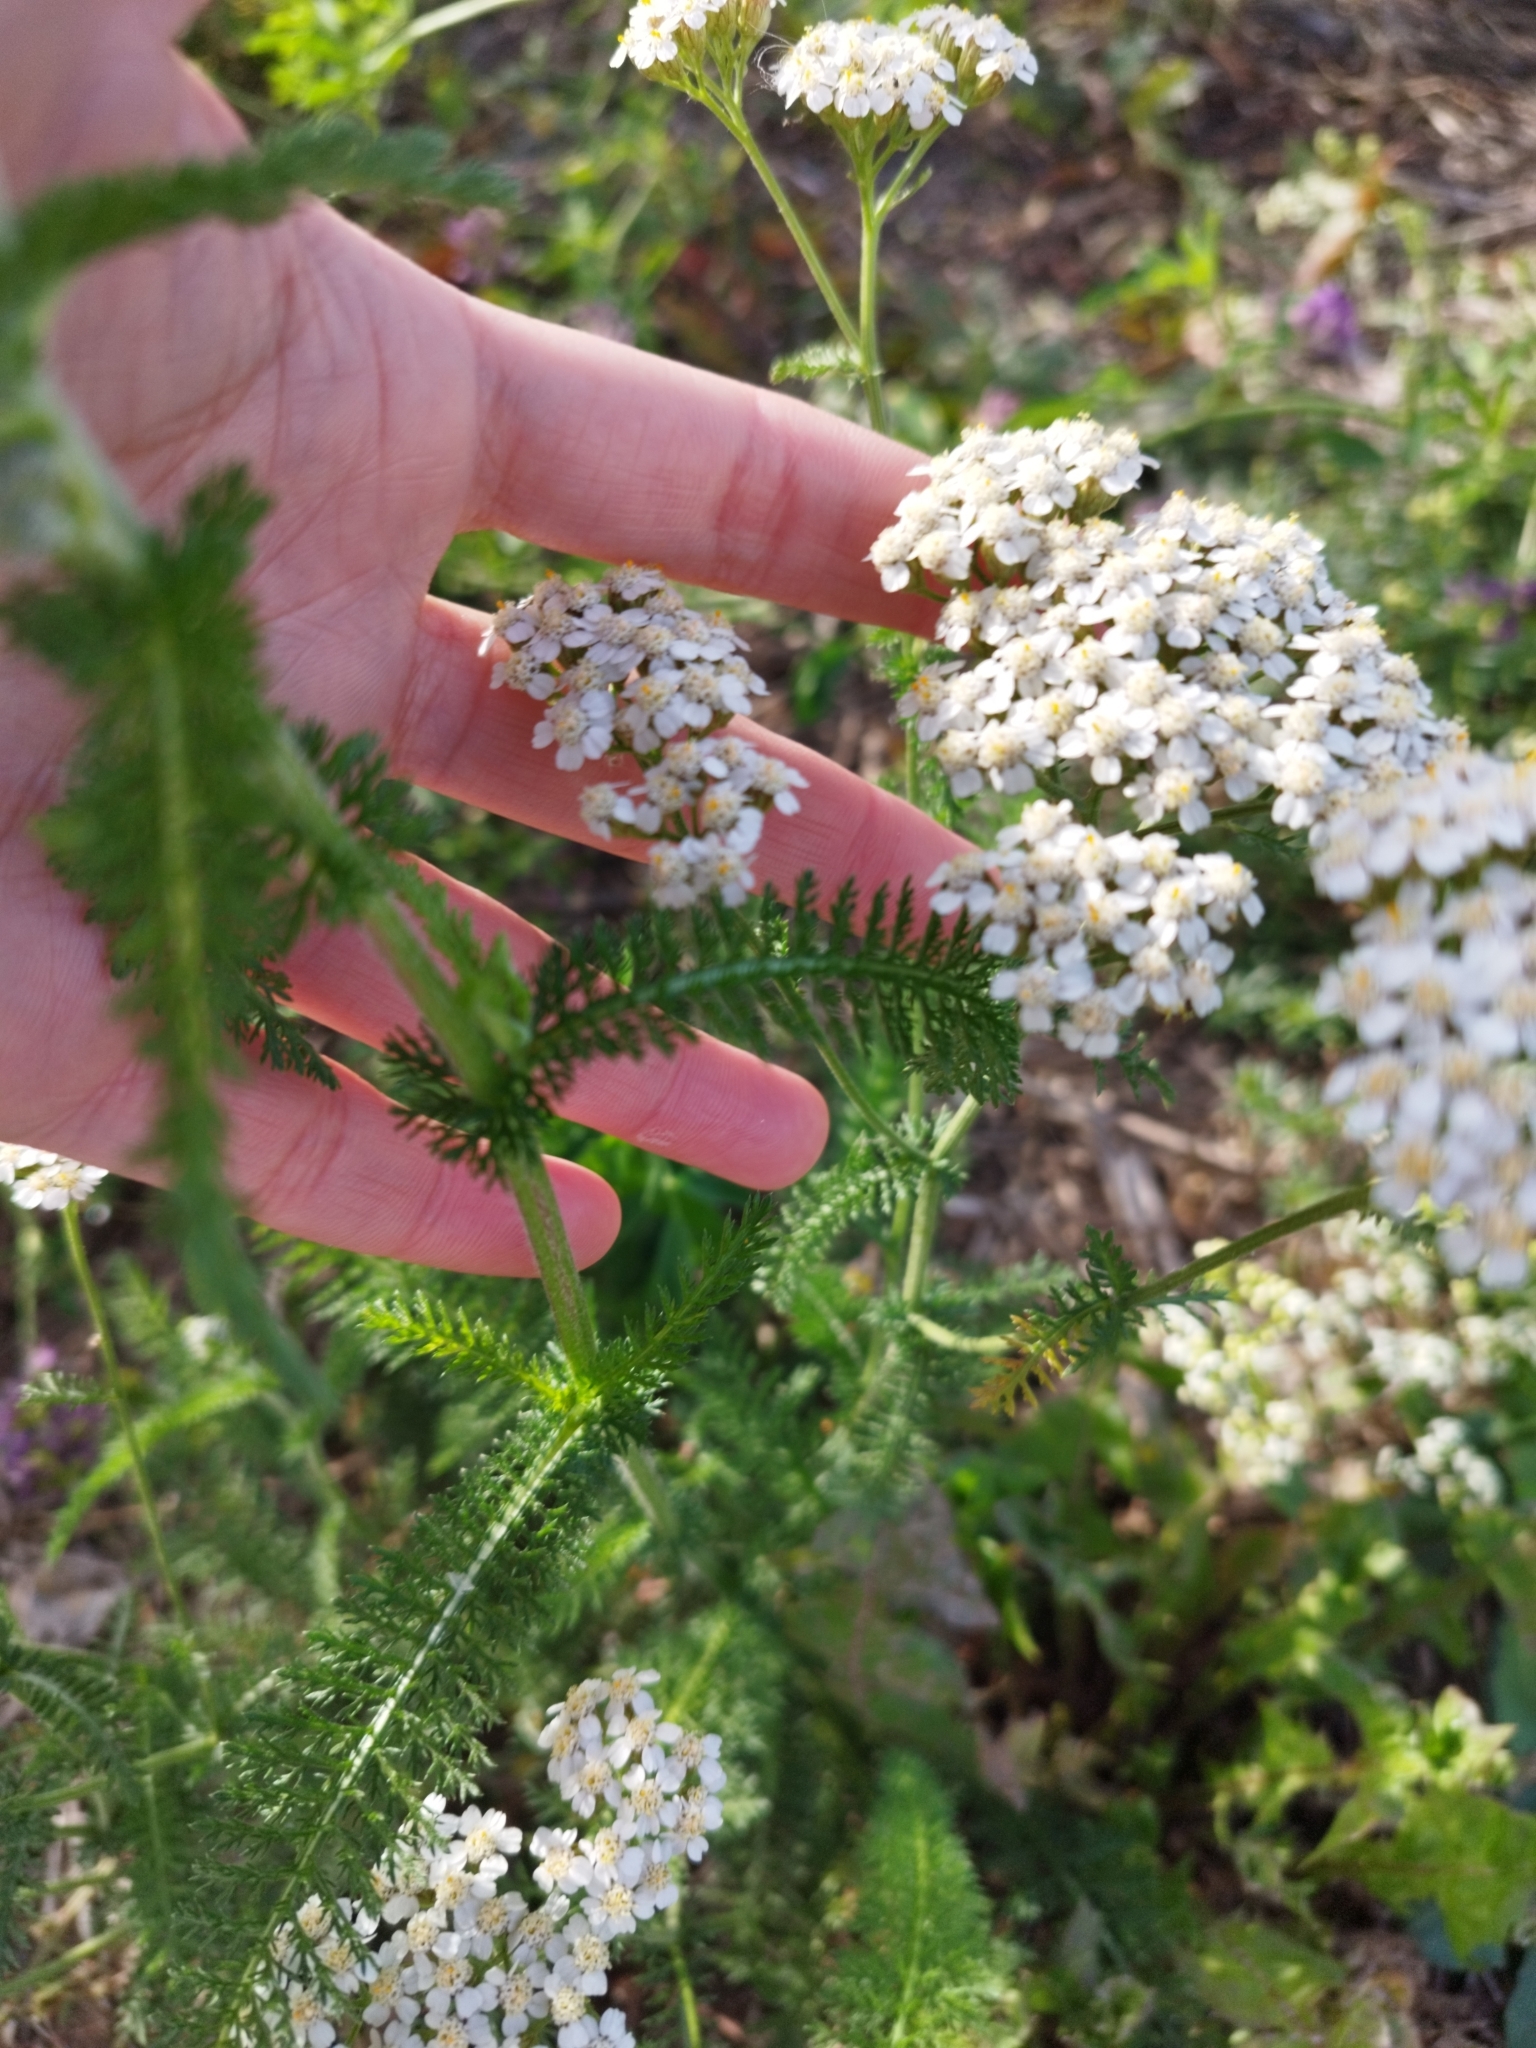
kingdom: Plantae
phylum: Tracheophyta
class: Magnoliopsida
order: Asterales
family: Asteraceae
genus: Achillea
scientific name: Achillea millefolium
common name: Yarrow
